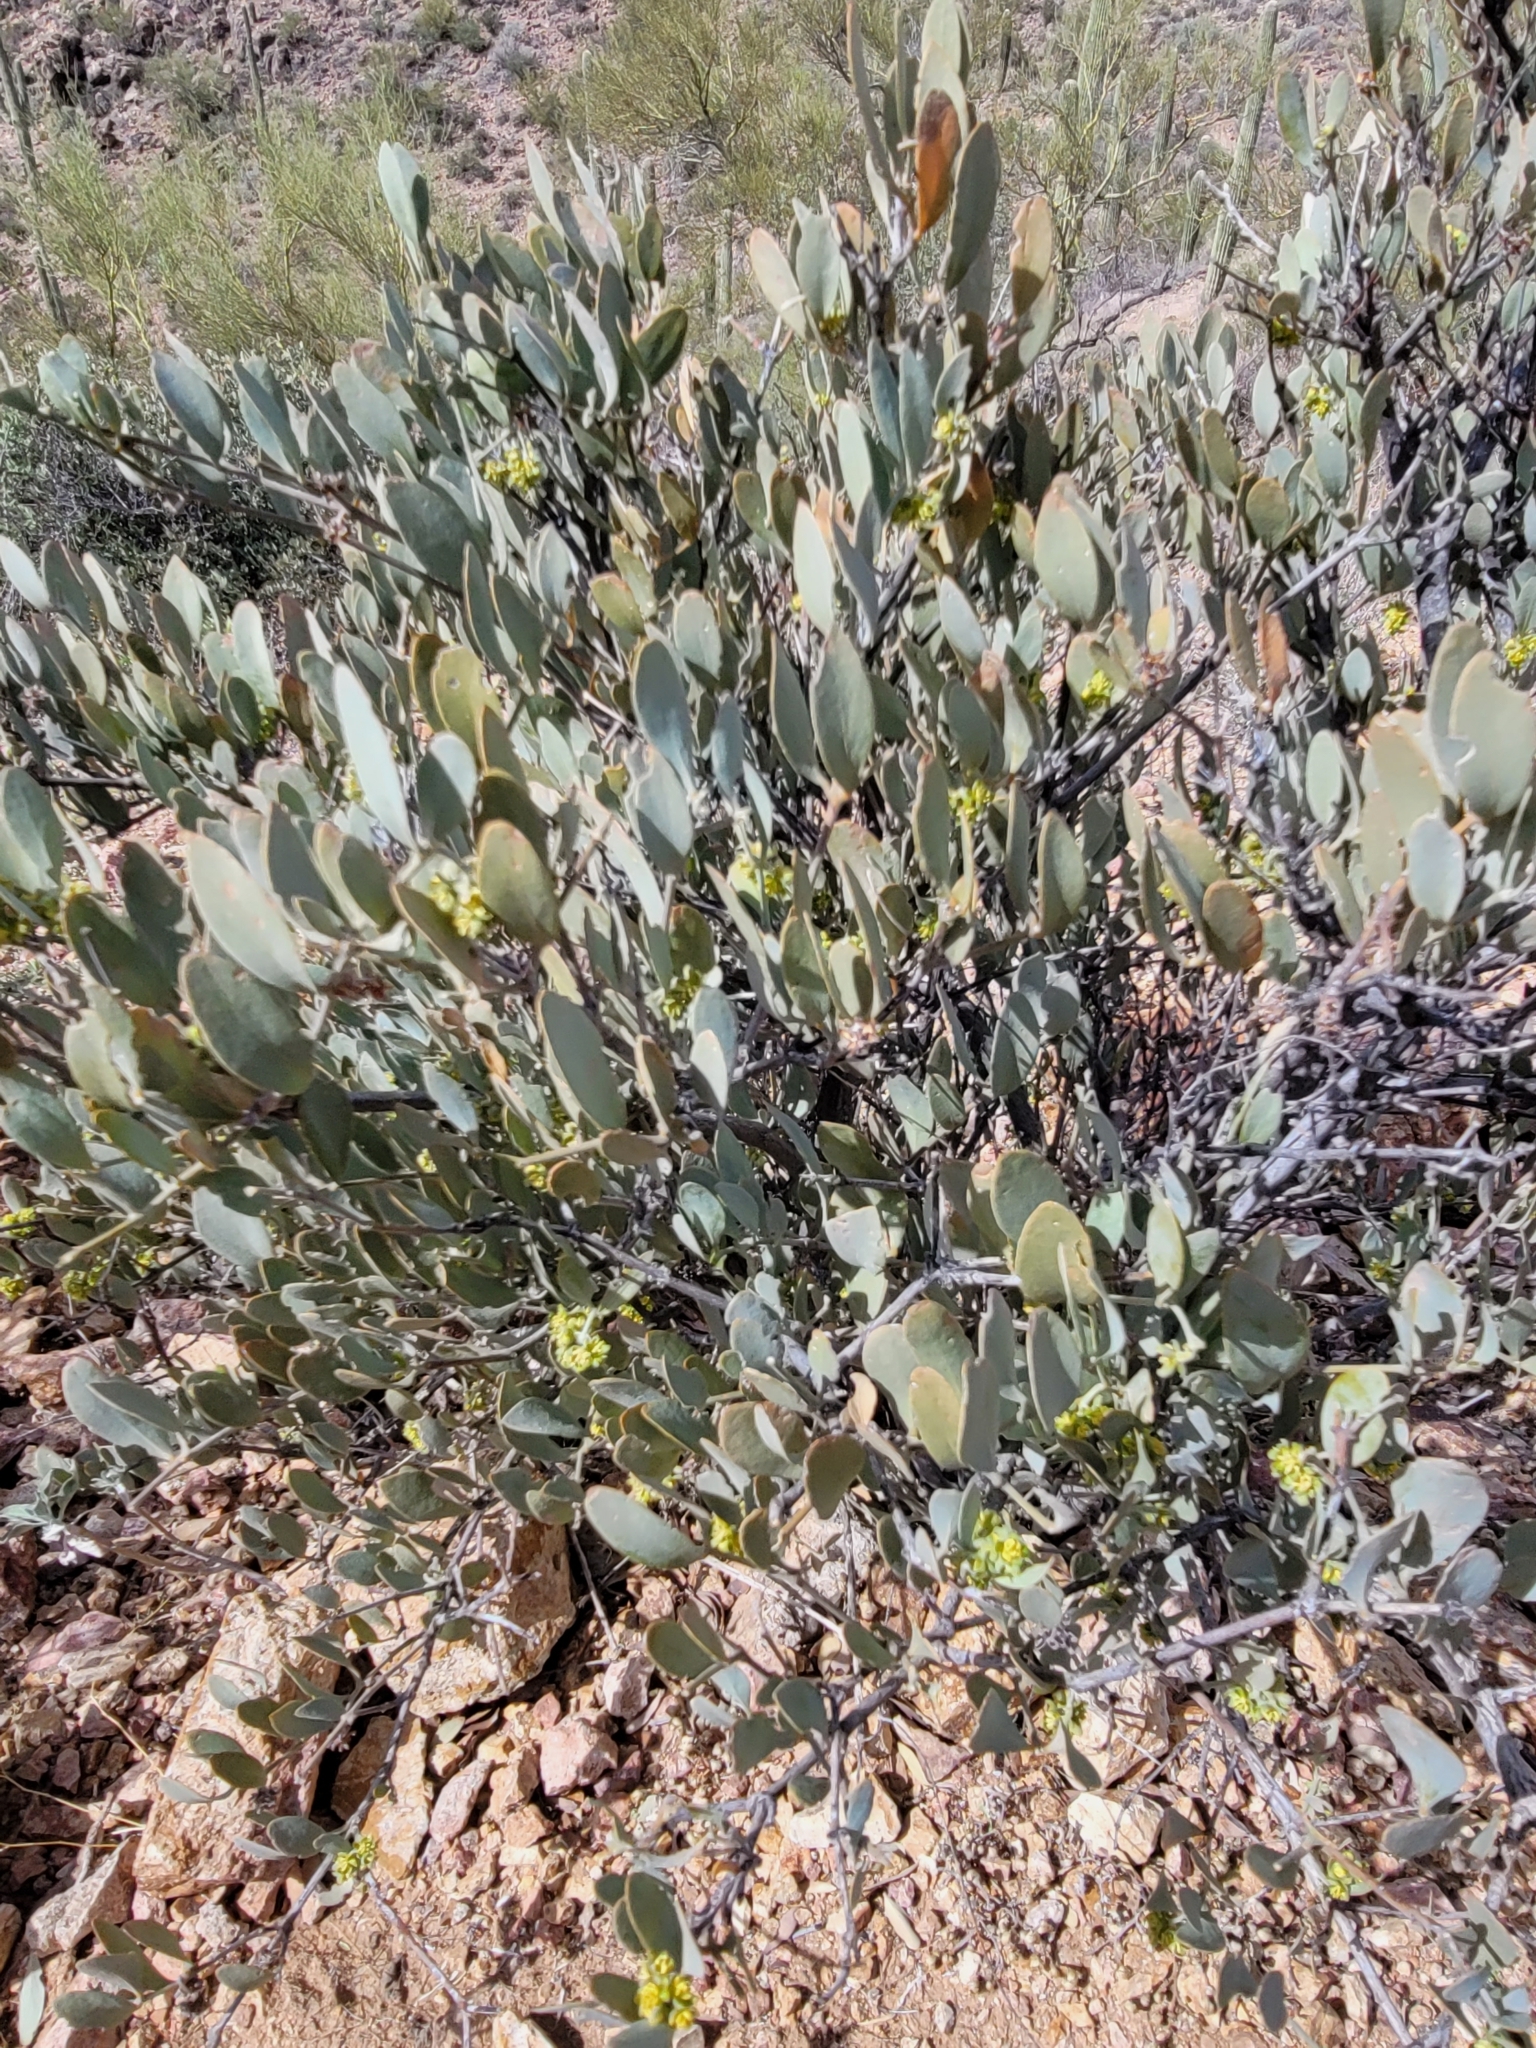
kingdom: Plantae
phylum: Tracheophyta
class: Magnoliopsida
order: Caryophyllales
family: Simmondsiaceae
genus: Simmondsia
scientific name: Simmondsia chinensis
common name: Jojoba
